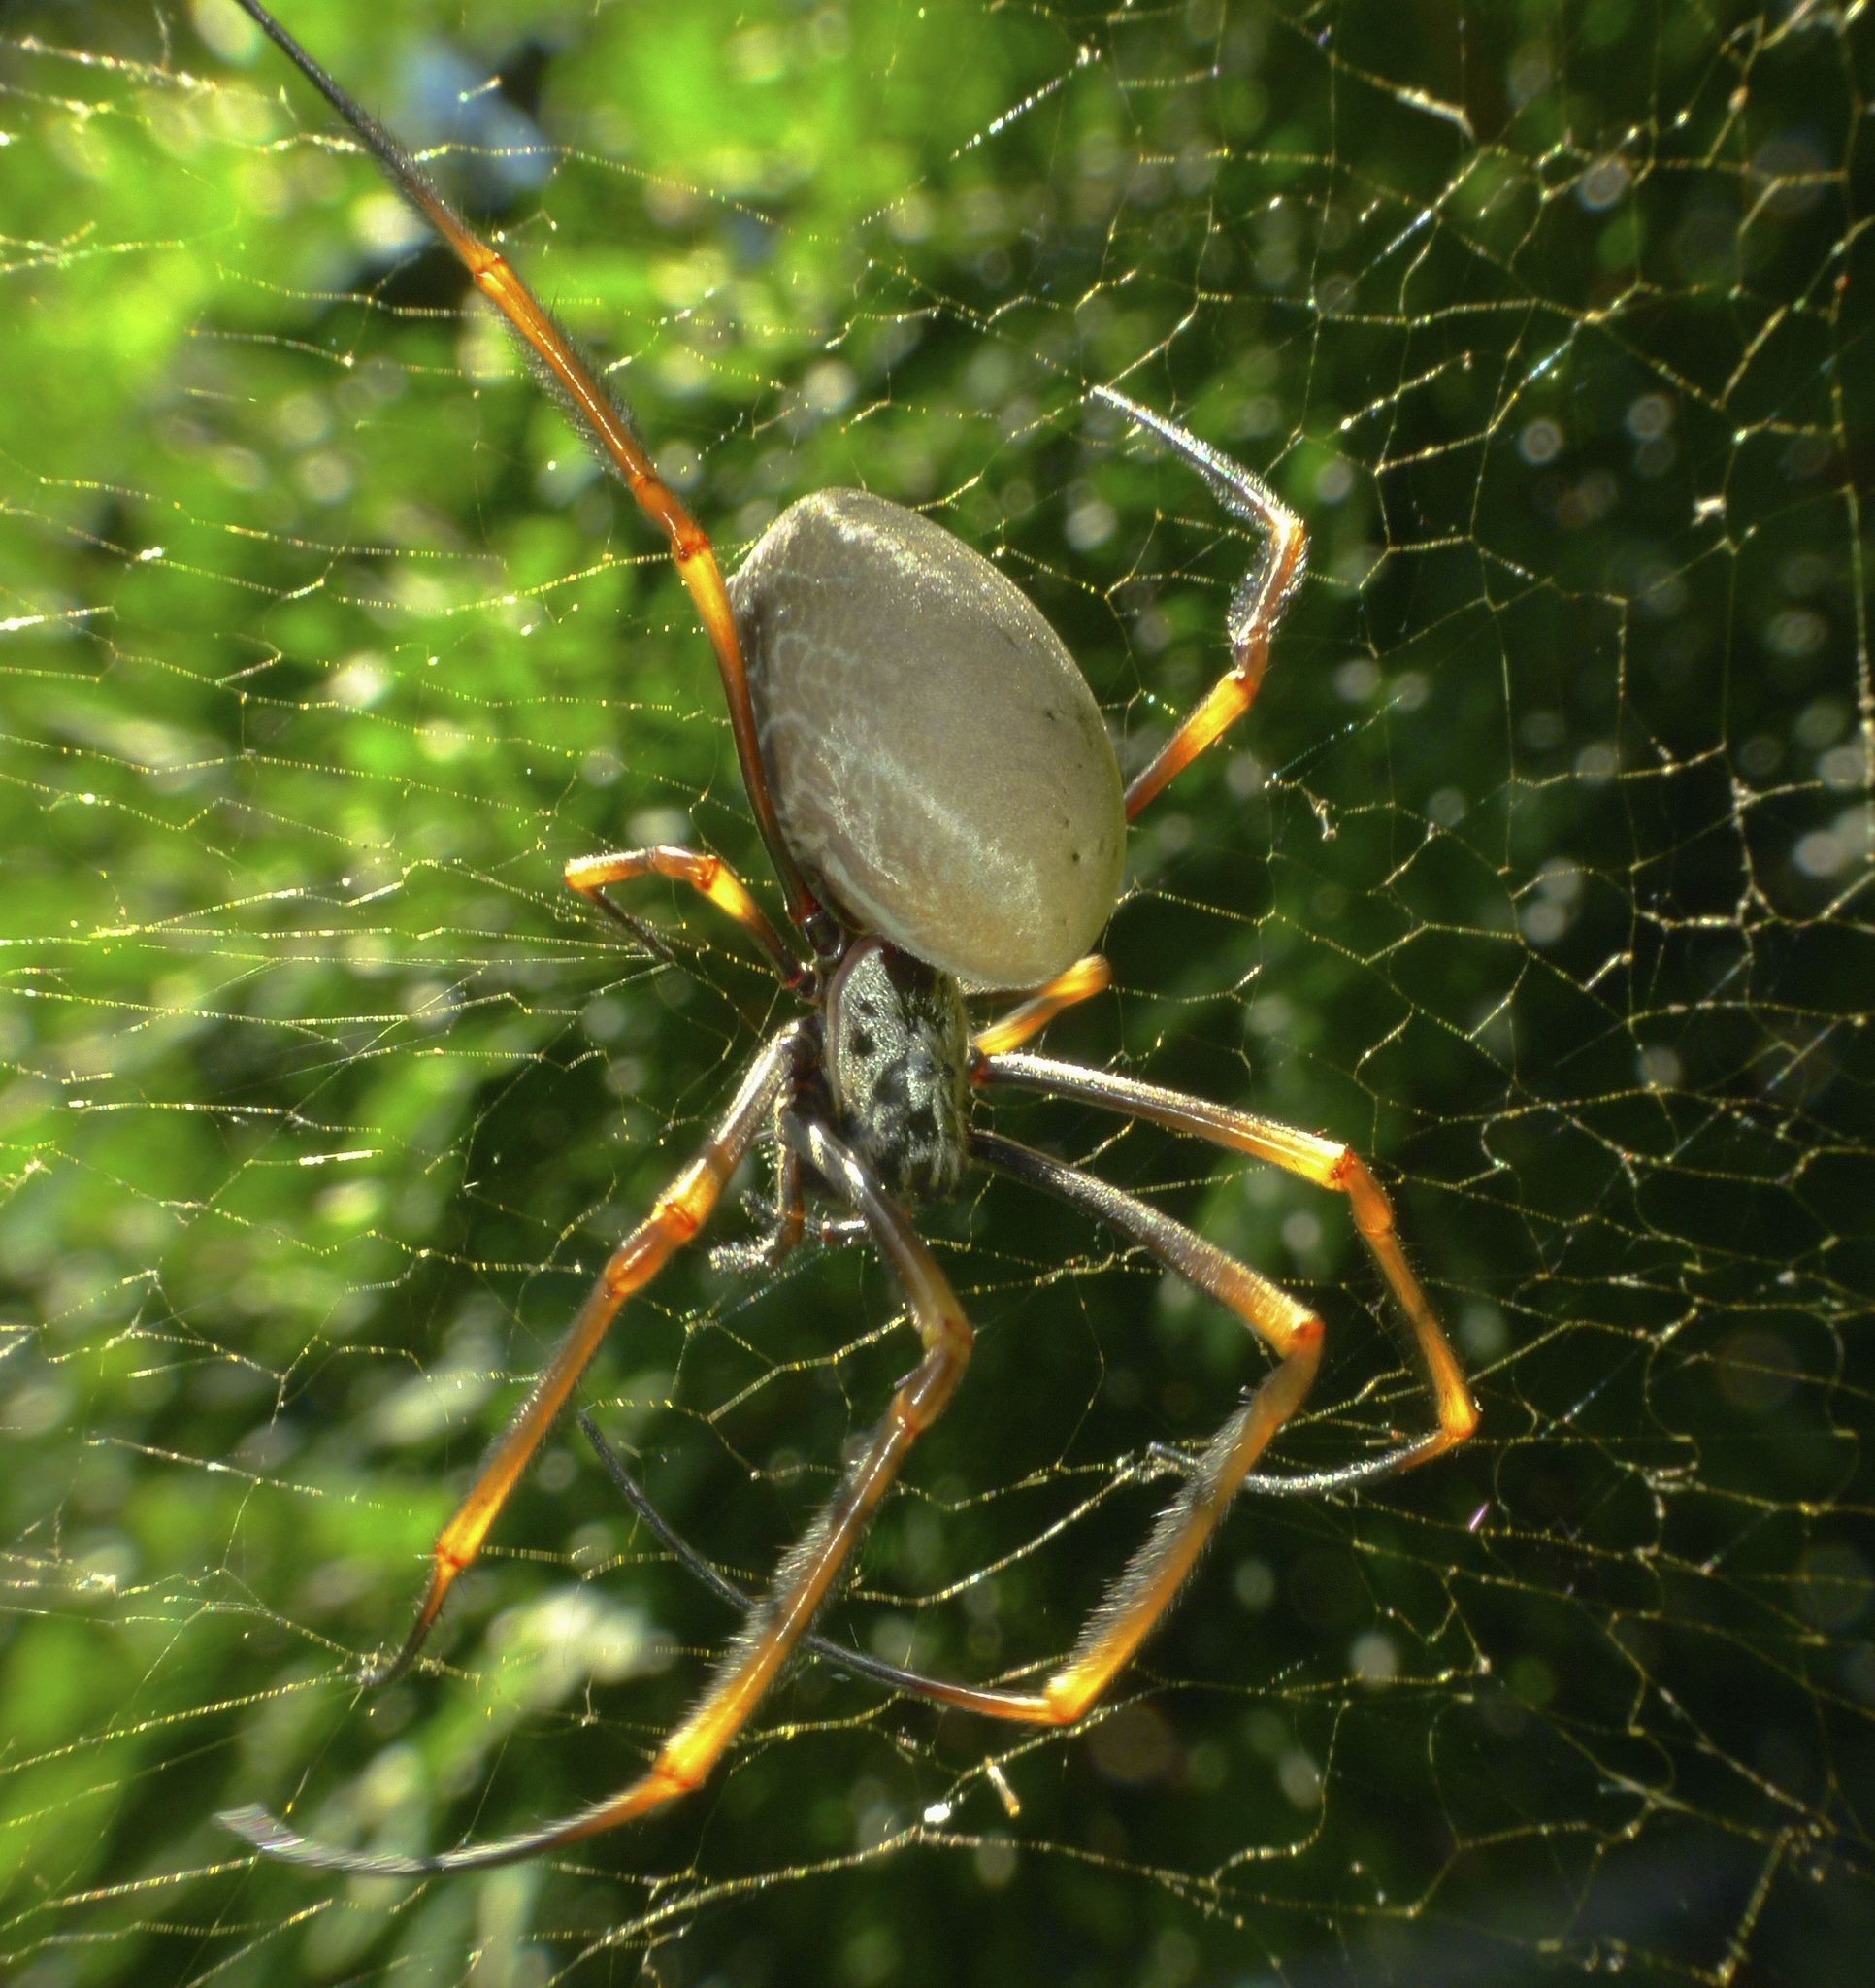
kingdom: Animalia
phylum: Arthropoda
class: Arachnida
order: Araneae
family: Araneidae
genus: Trichonephila
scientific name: Trichonephila plumipes
